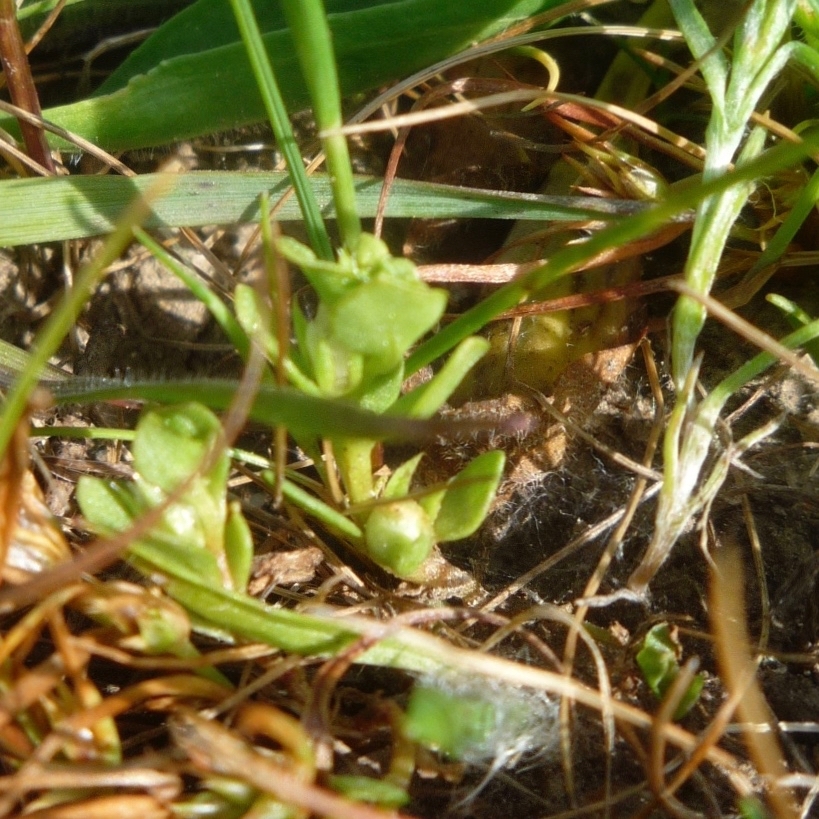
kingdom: Plantae
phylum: Tracheophyta
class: Magnoliopsida
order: Ericales
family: Primulaceae
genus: Lysimachia
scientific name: Lysimachia minima
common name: Chaffweed
